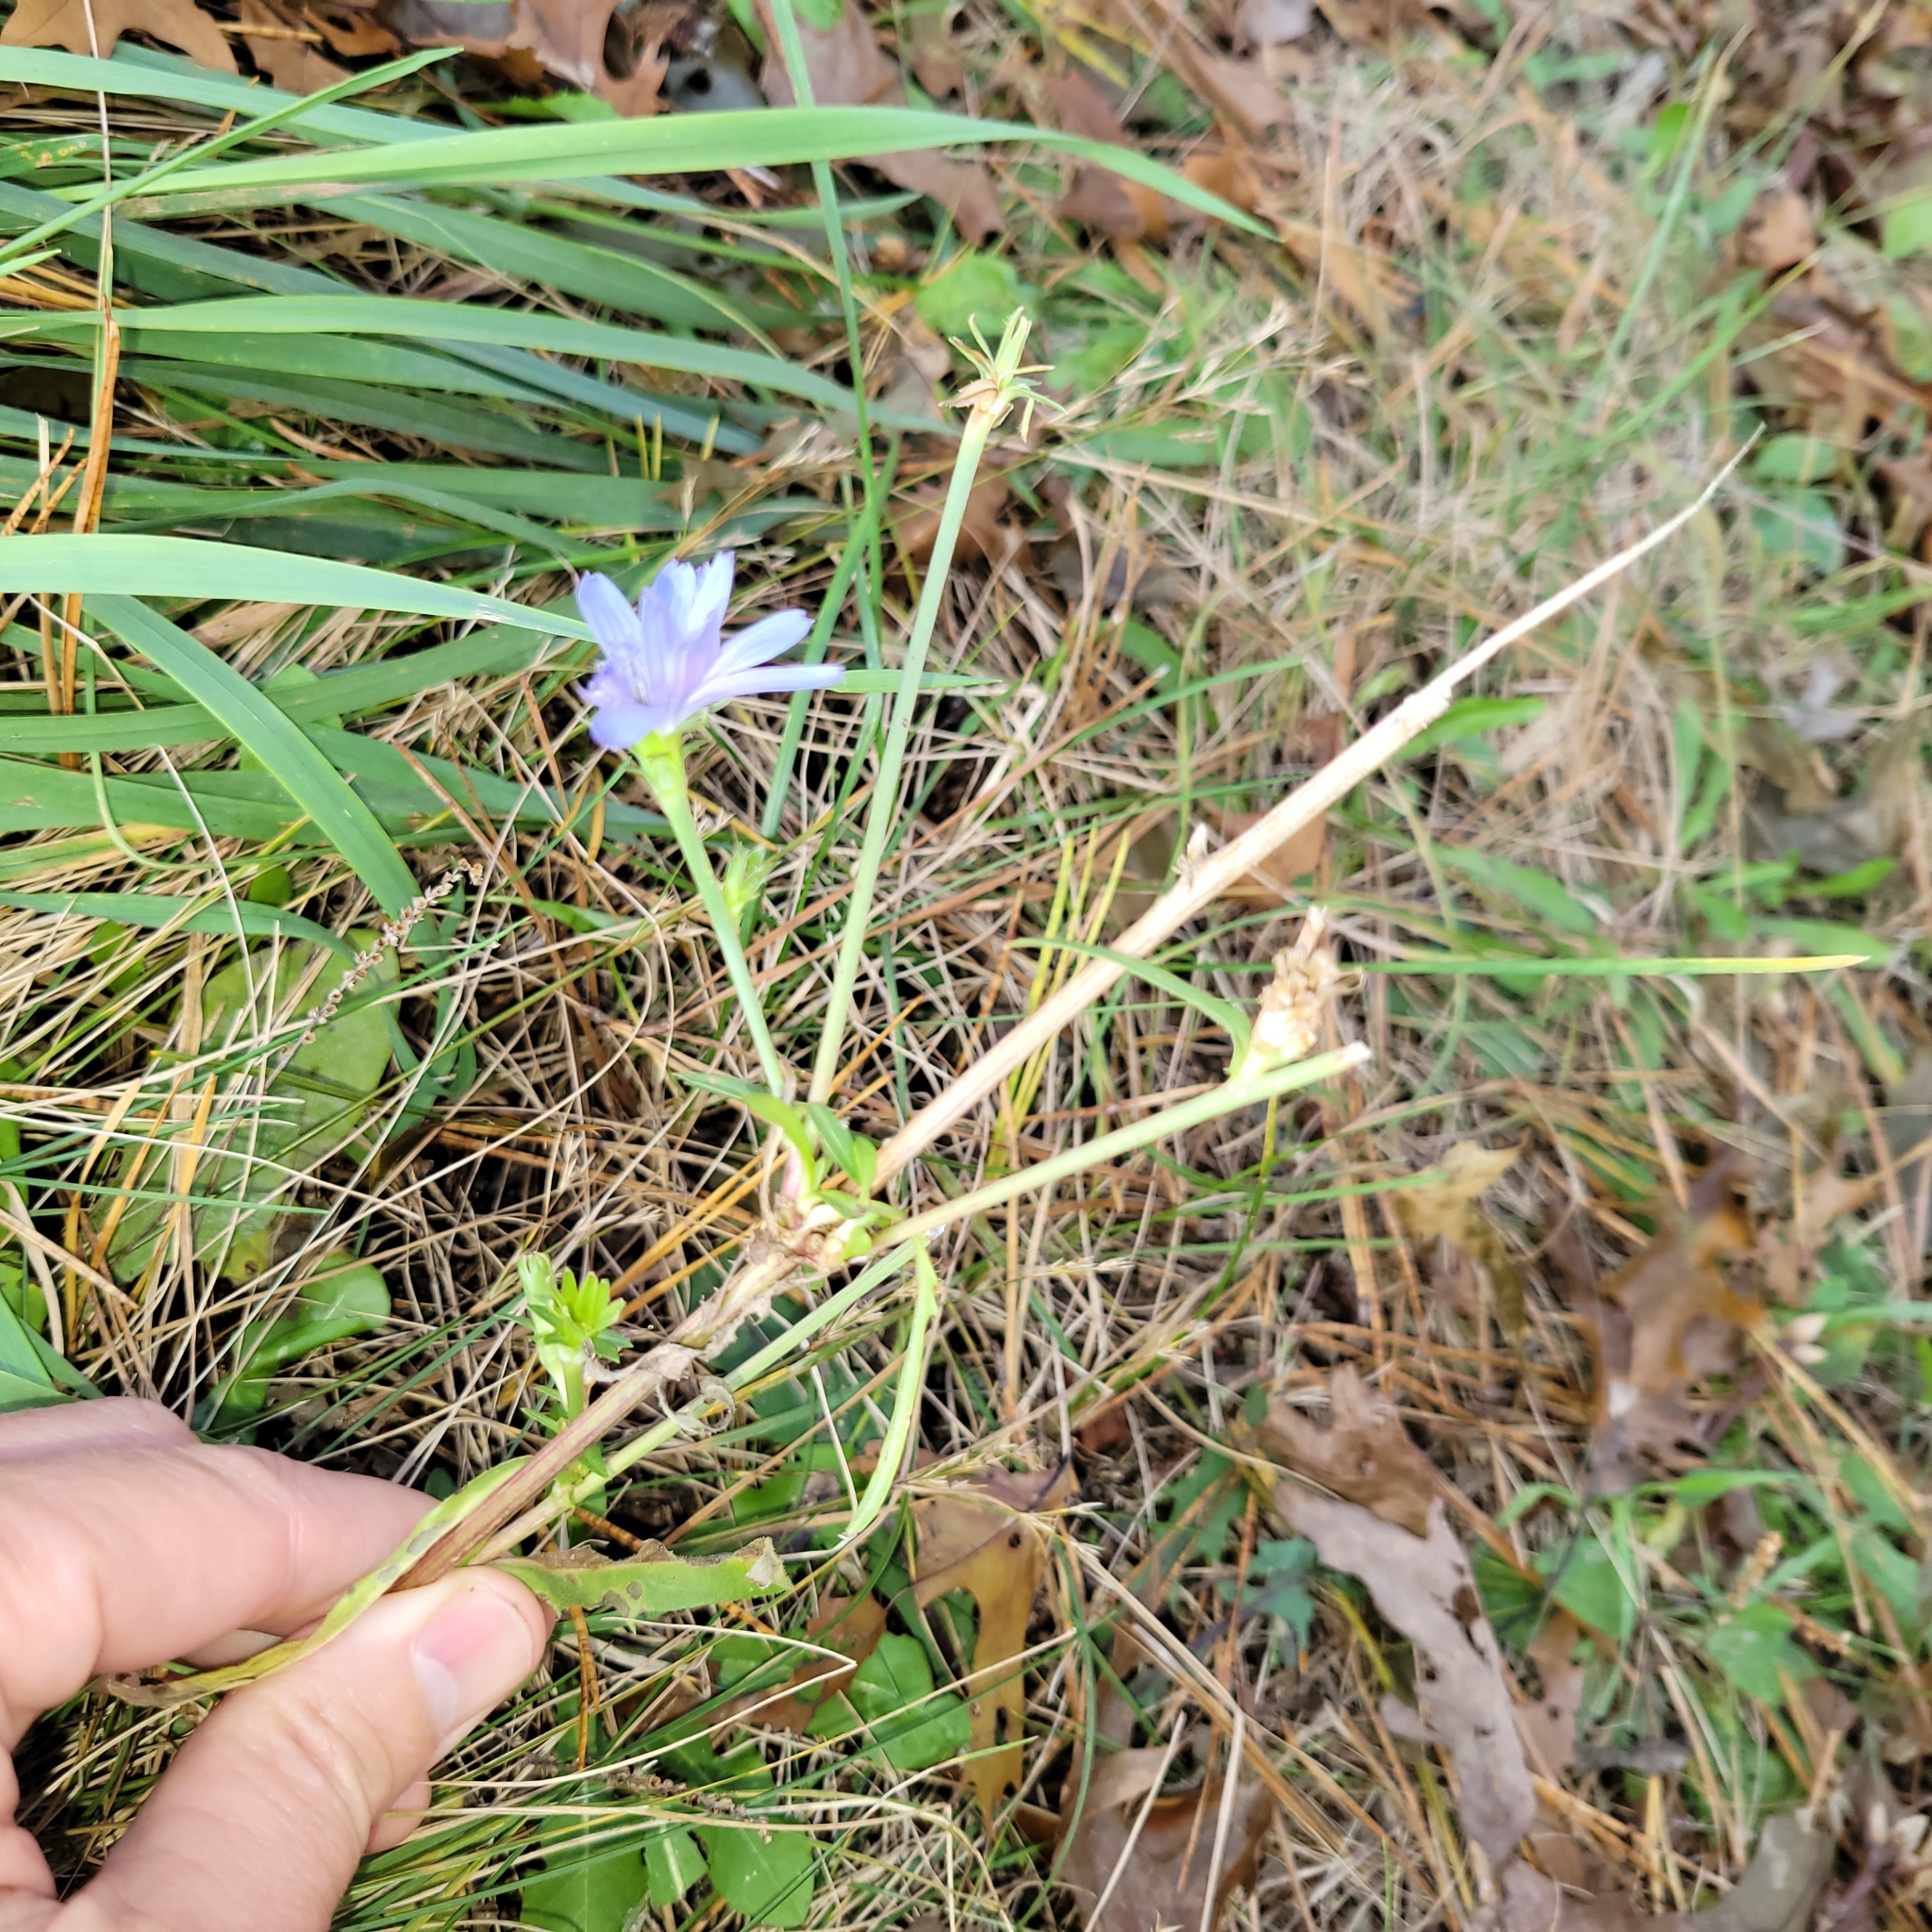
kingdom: Plantae
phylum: Tracheophyta
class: Magnoliopsida
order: Asterales
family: Asteraceae
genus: Cichorium
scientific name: Cichorium intybus
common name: Chicory
